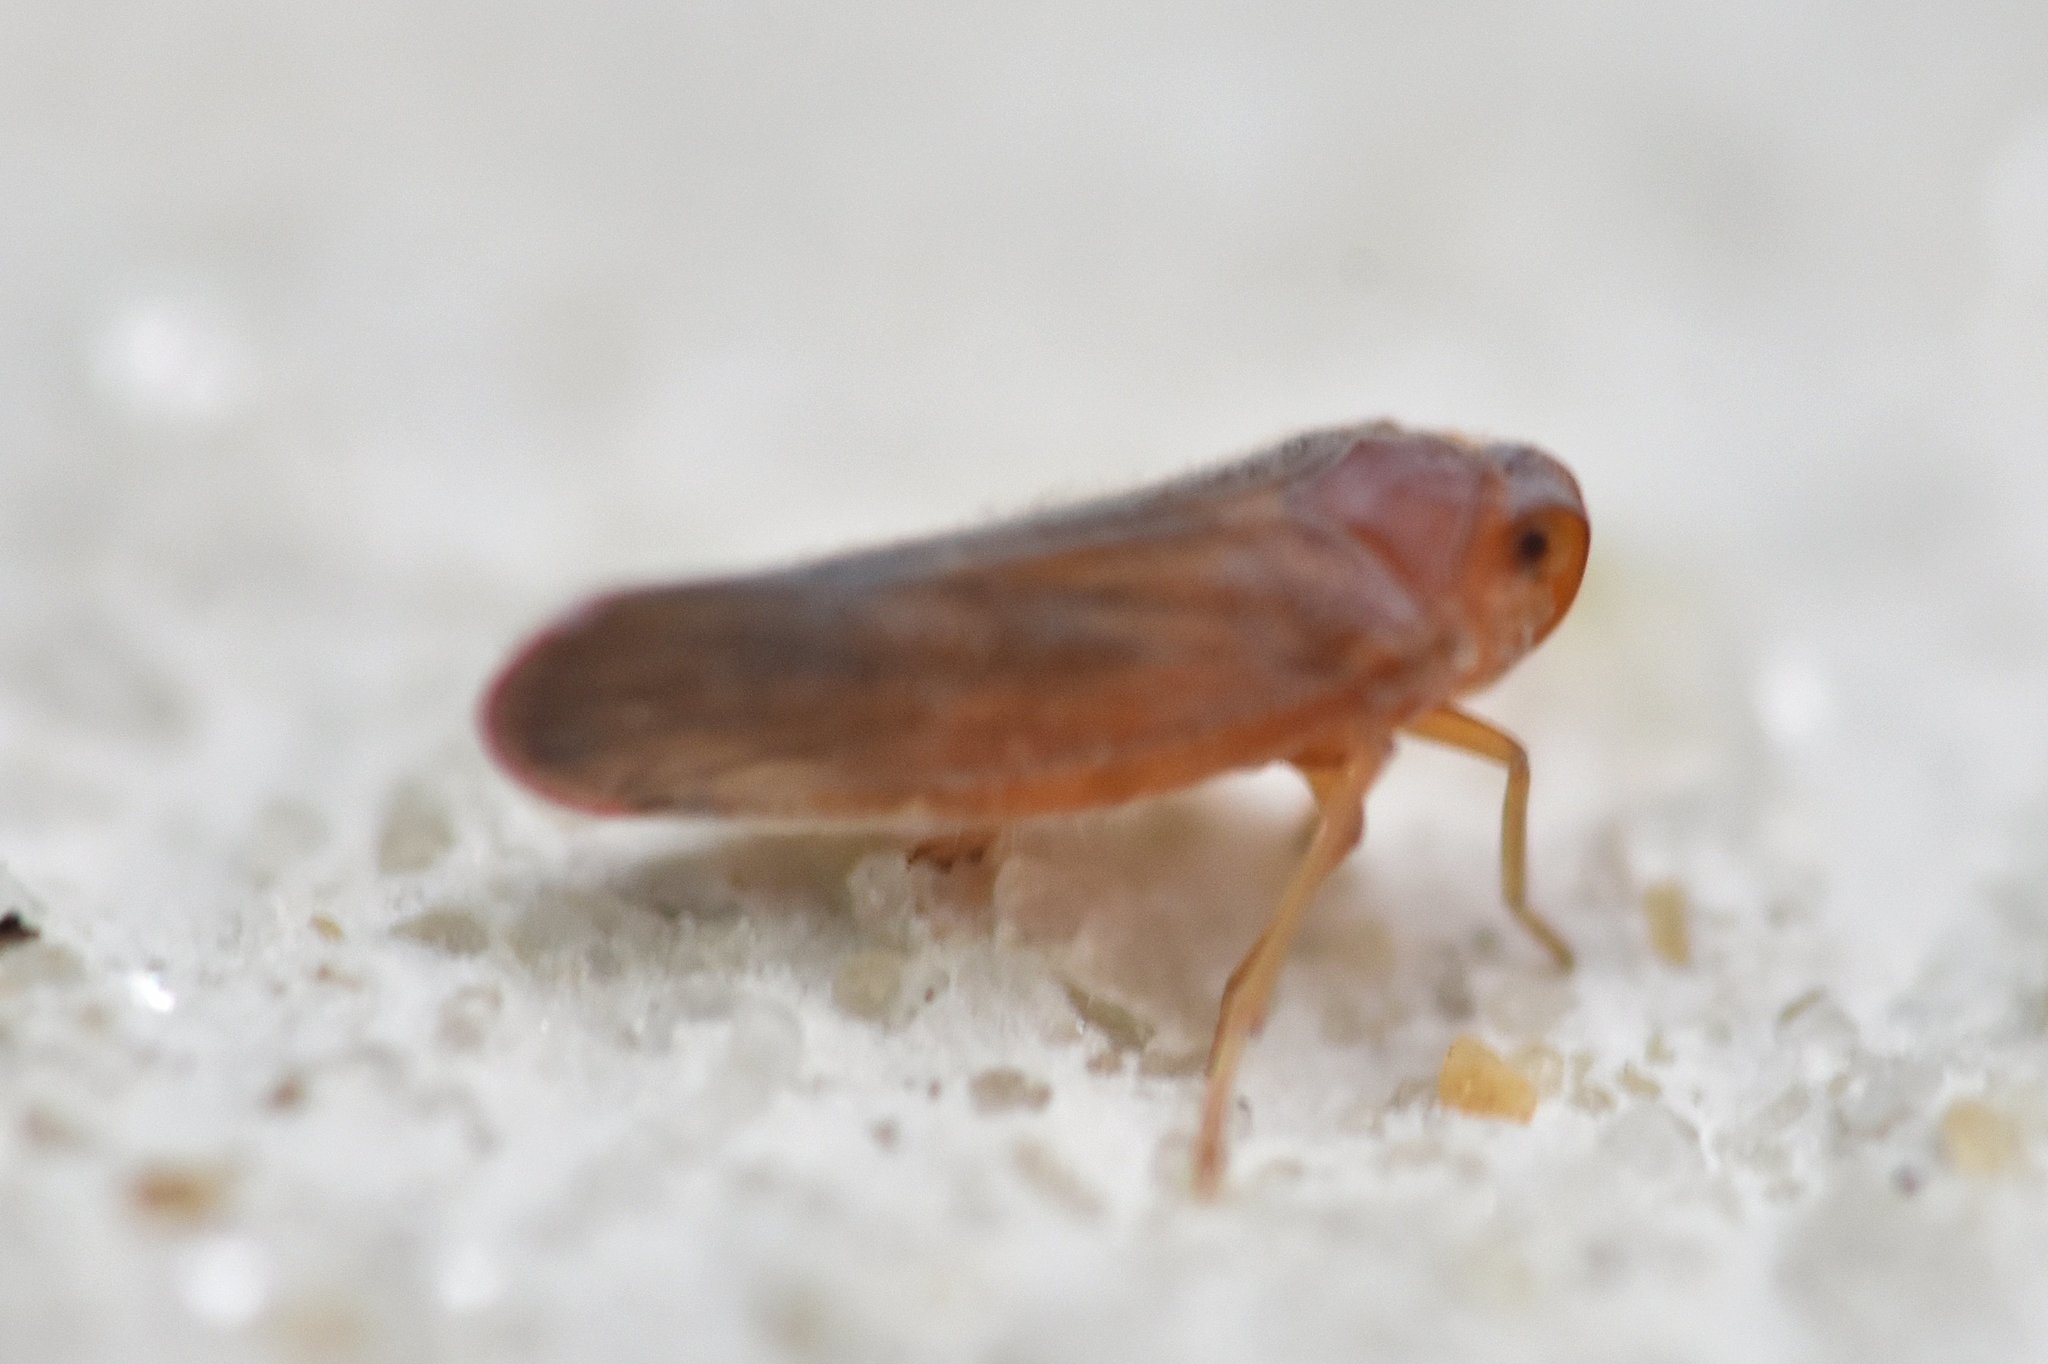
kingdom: Animalia
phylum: Arthropoda
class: Insecta
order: Hemiptera
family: Derbidae
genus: Omolicna
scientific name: Omolicna mcateei
